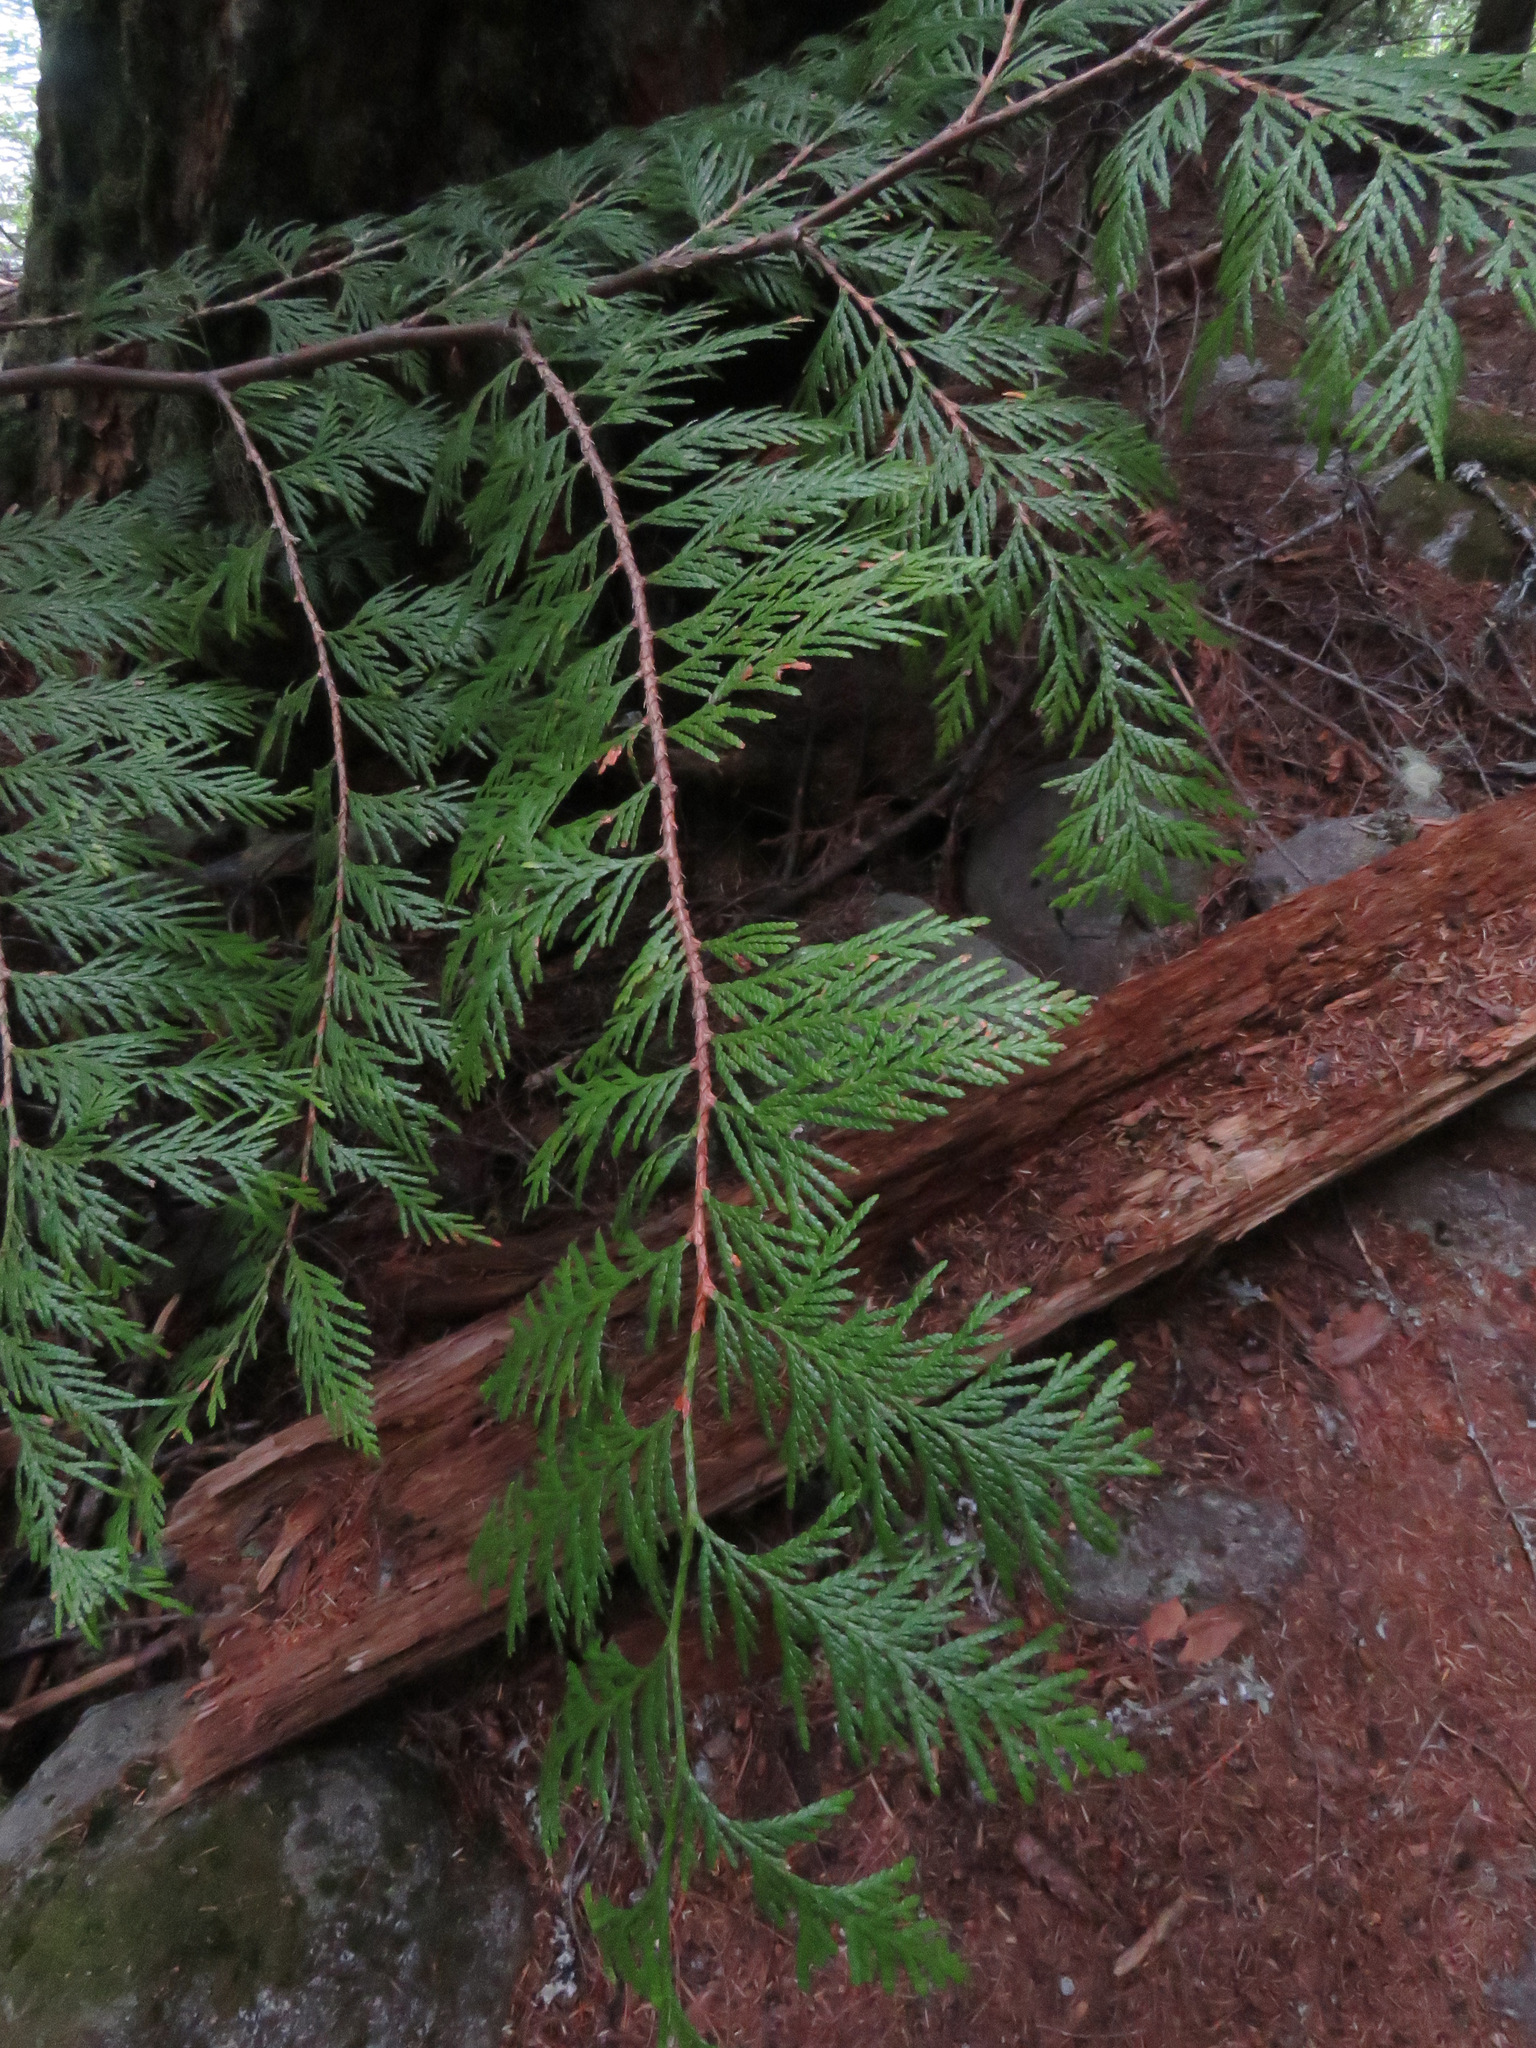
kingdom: Plantae
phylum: Tracheophyta
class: Pinopsida
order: Pinales
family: Cupressaceae
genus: Thuja
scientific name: Thuja plicata
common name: Western red-cedar
